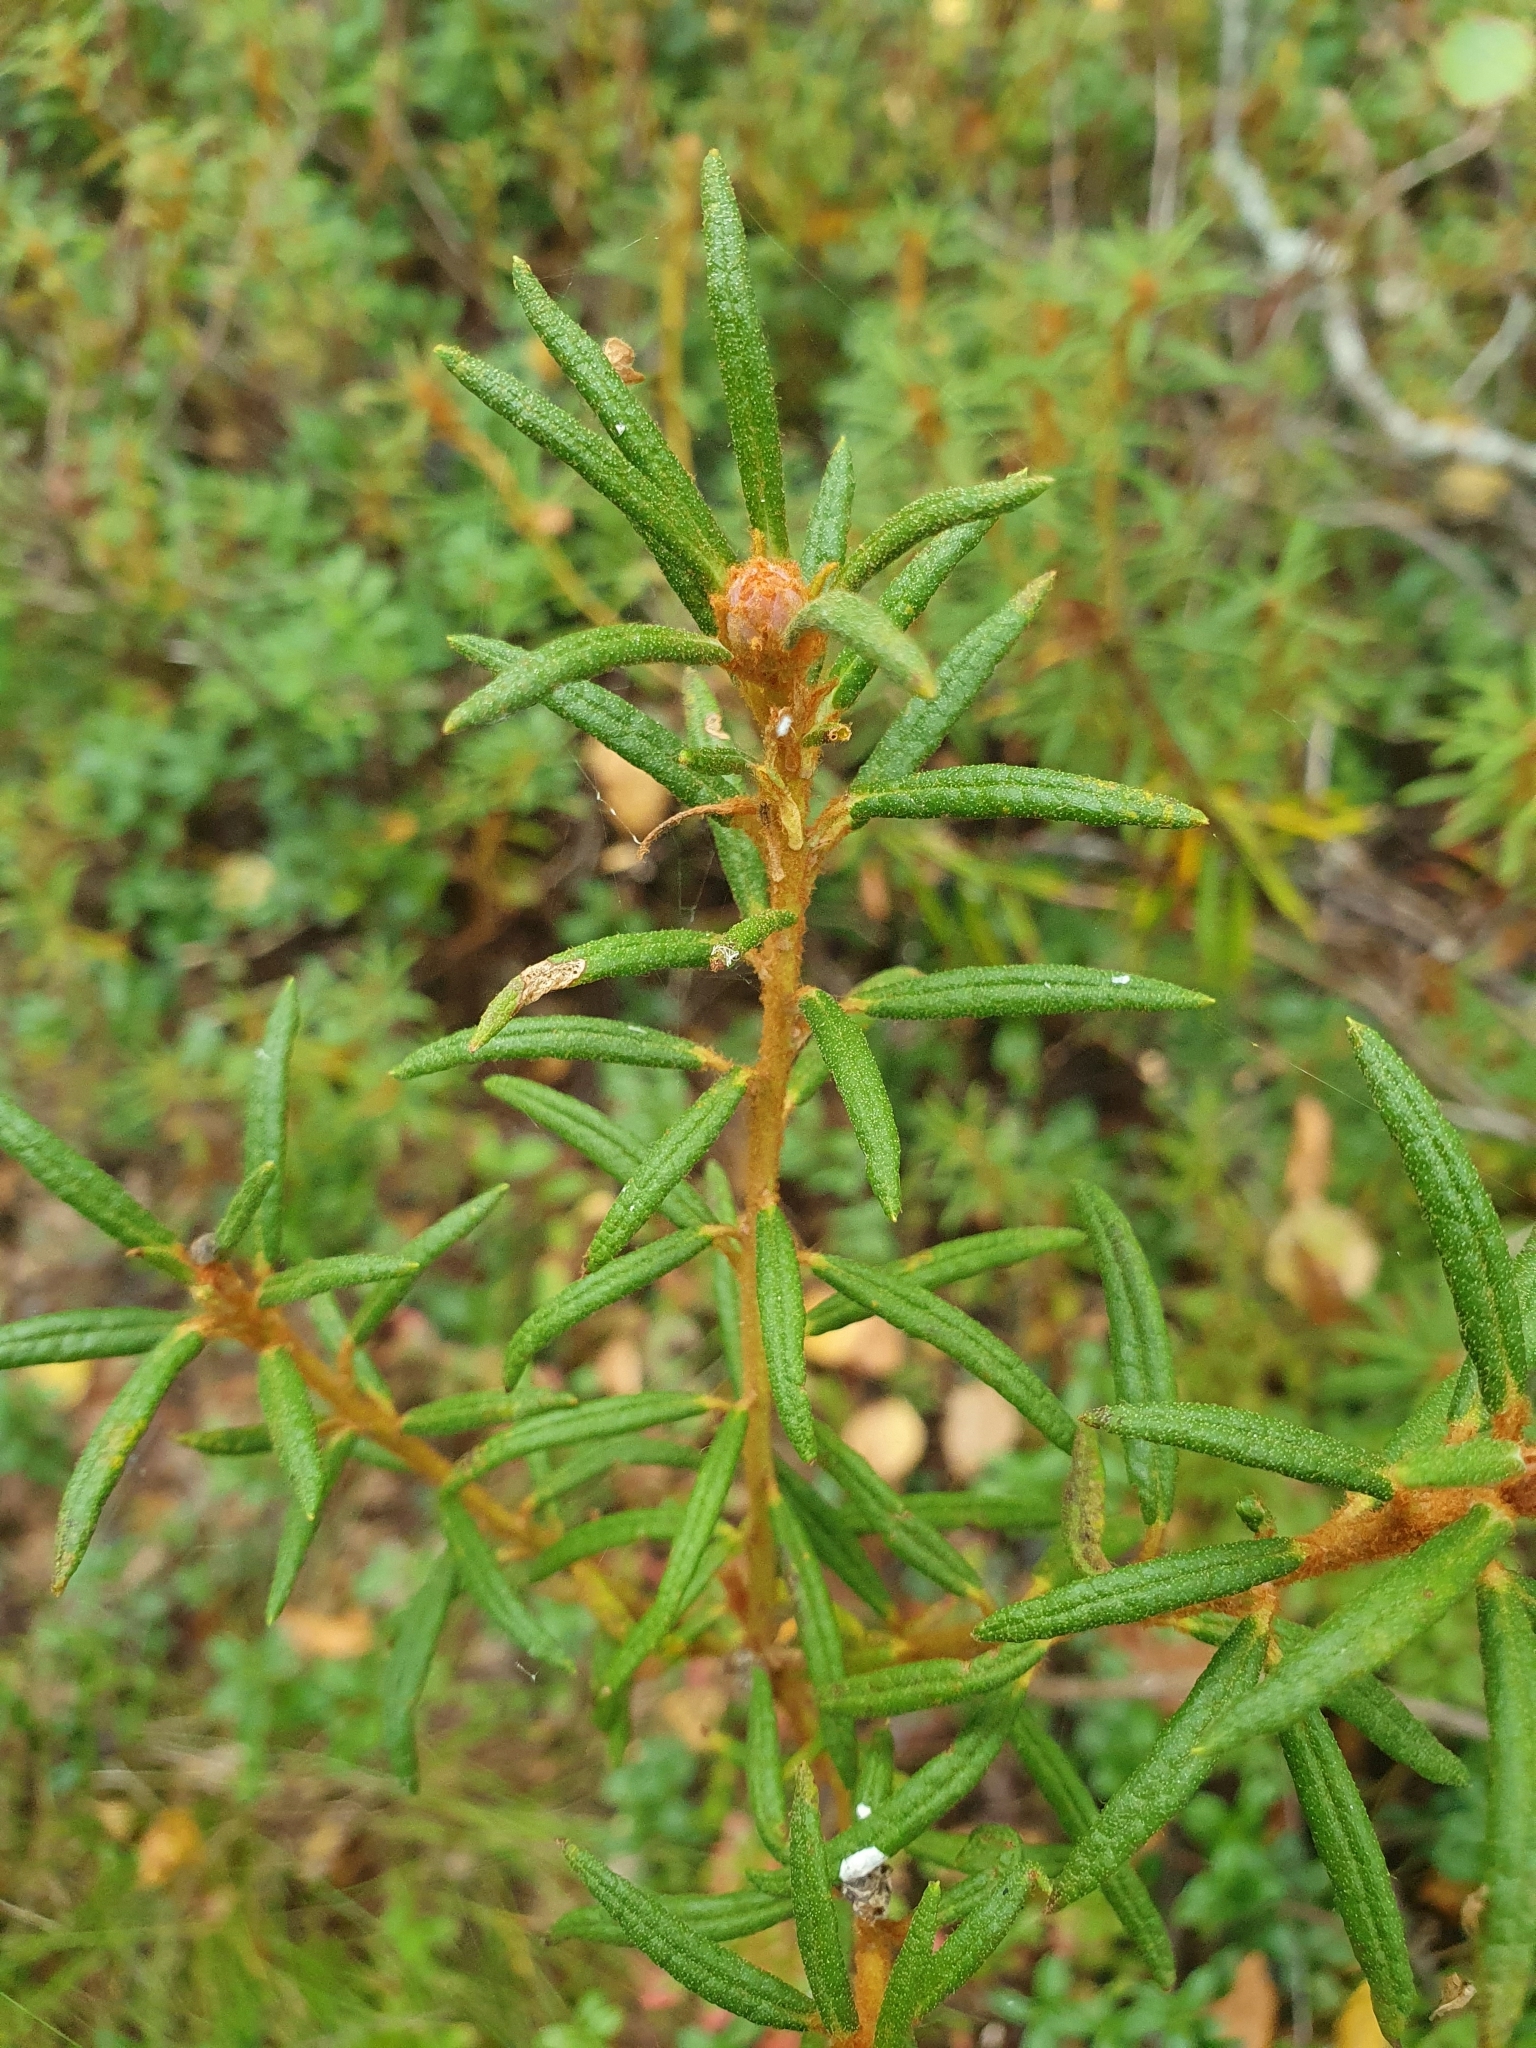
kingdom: Plantae
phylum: Tracheophyta
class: Magnoliopsida
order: Ericales
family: Ericaceae
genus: Rhododendron
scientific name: Rhododendron tomentosum
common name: Marsh labrador tea
